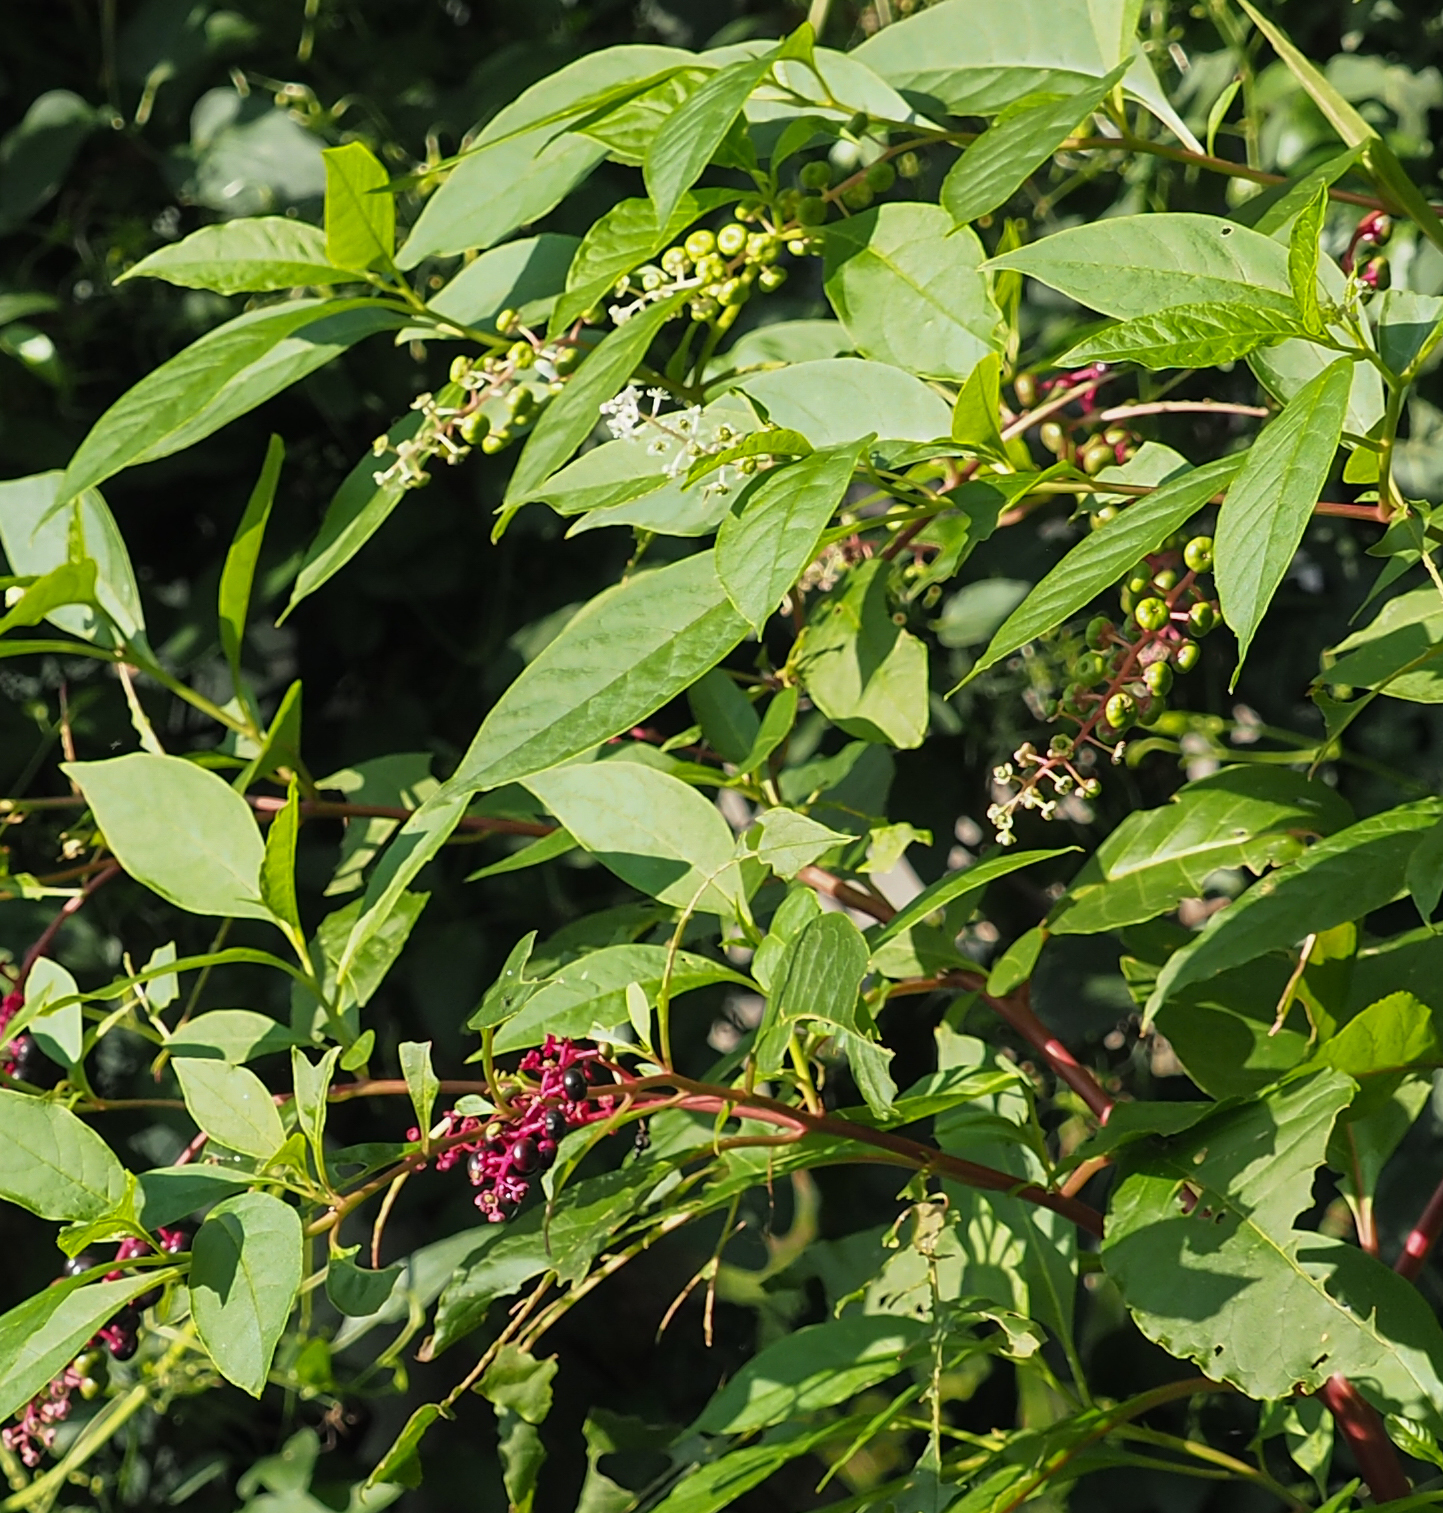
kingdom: Plantae
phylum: Tracheophyta
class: Magnoliopsida
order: Caryophyllales
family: Phytolaccaceae
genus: Phytolacca
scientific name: Phytolacca americana
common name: American pokeweed
